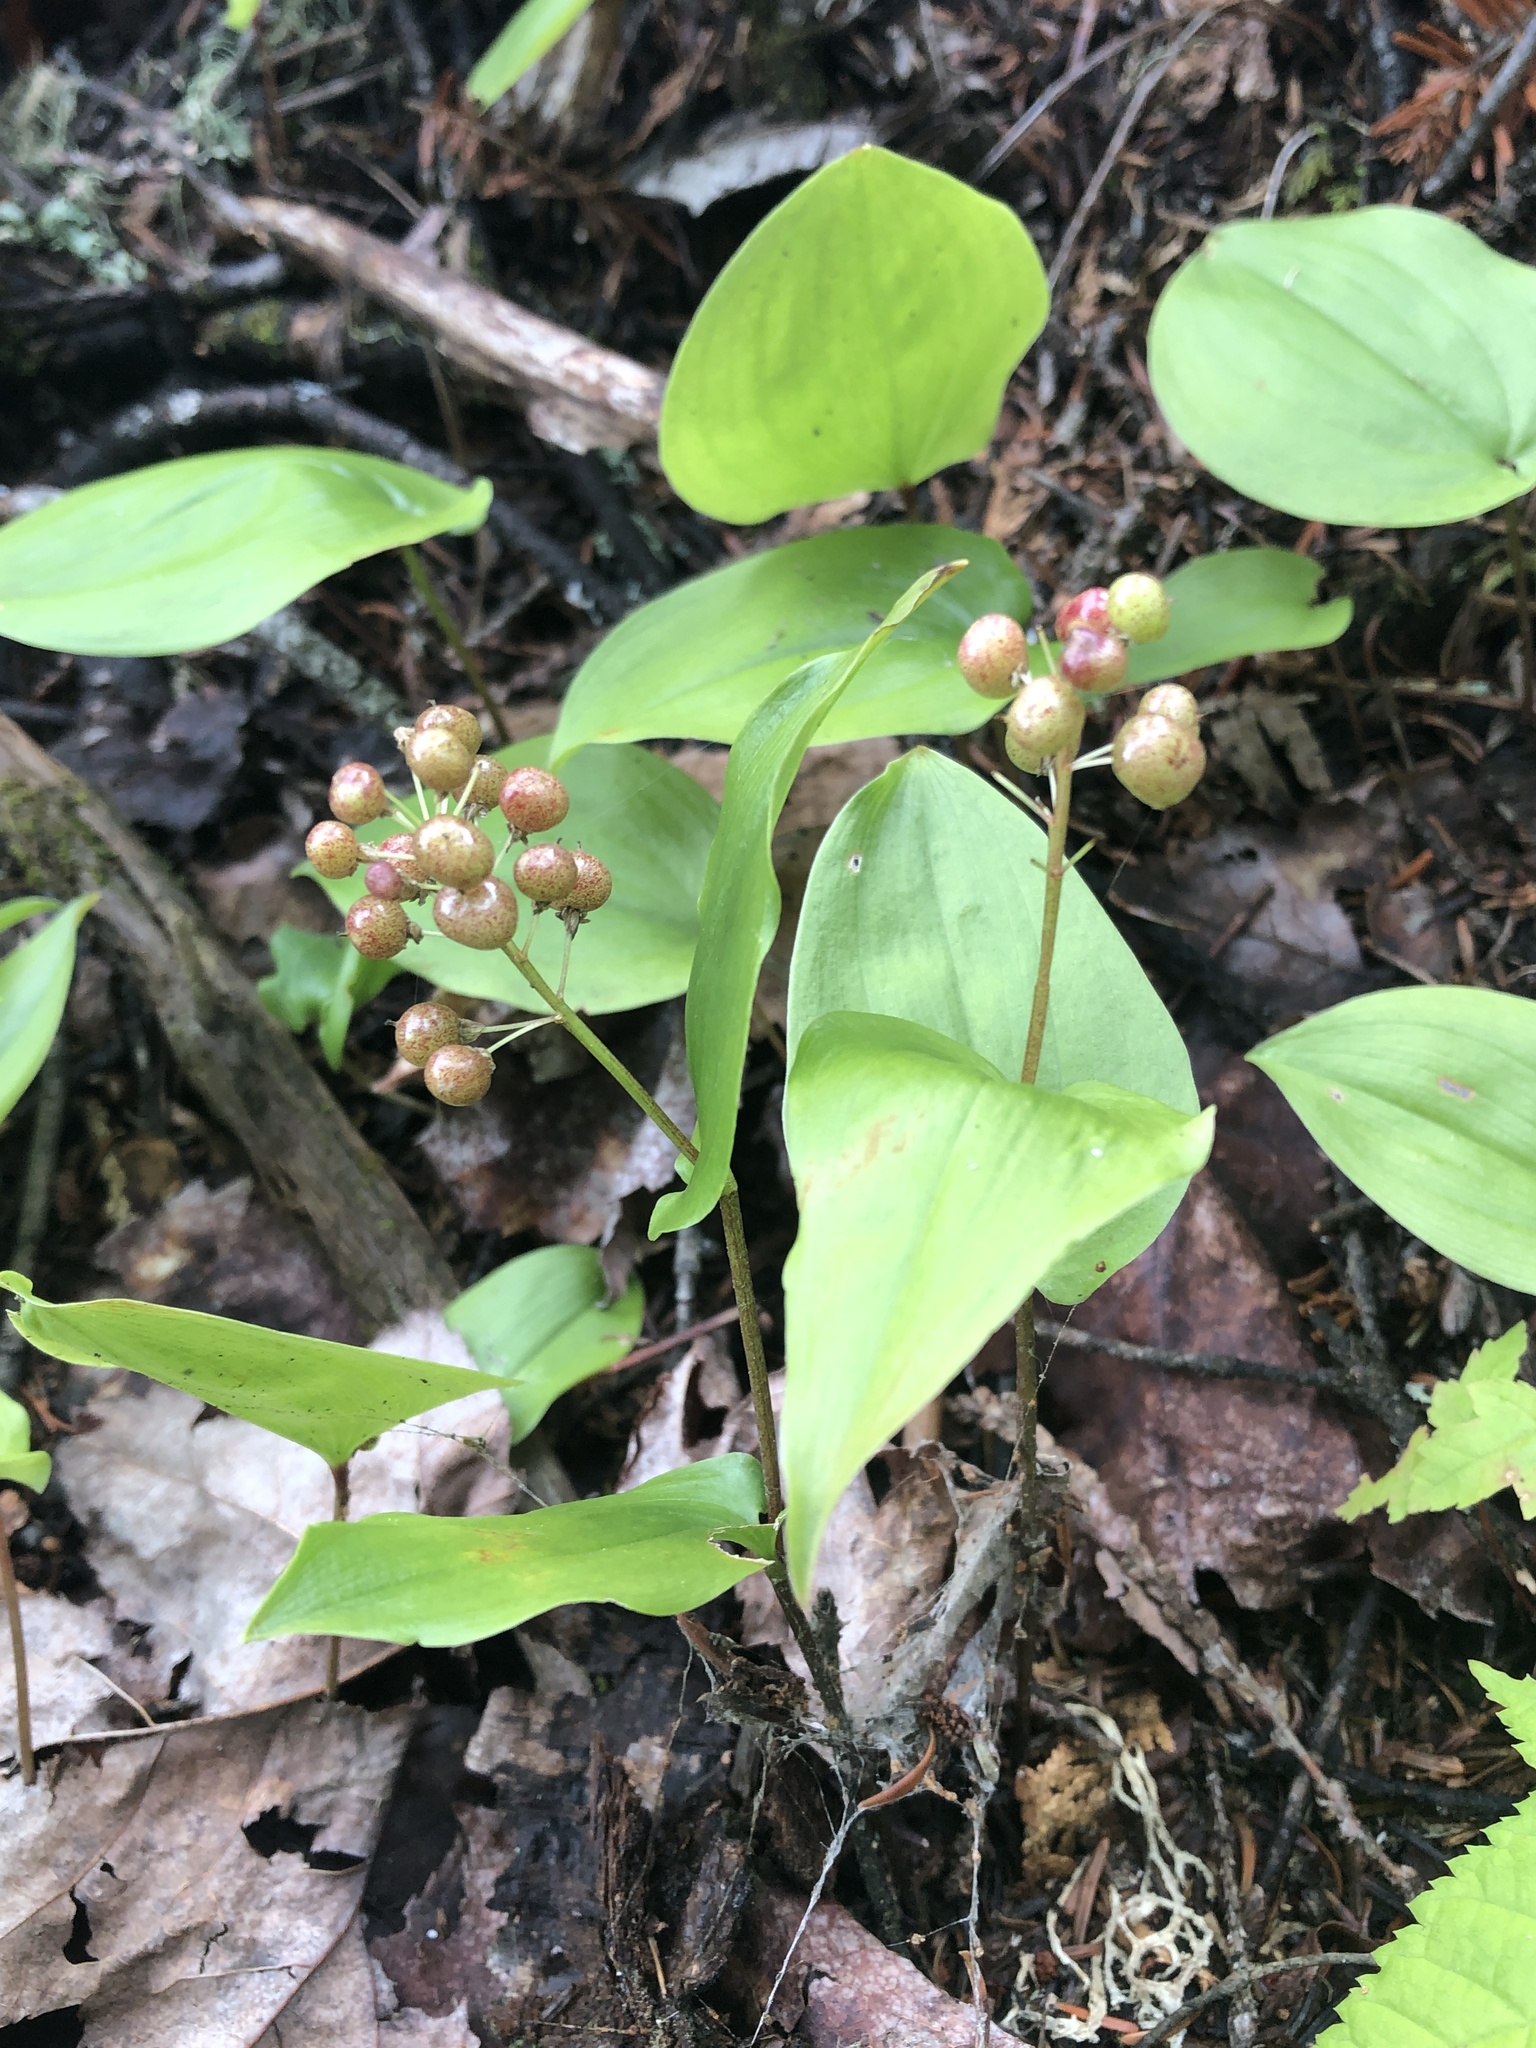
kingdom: Plantae
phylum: Tracheophyta
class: Liliopsida
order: Asparagales
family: Asparagaceae
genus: Maianthemum
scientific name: Maianthemum canadense
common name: False lily-of-the-valley
